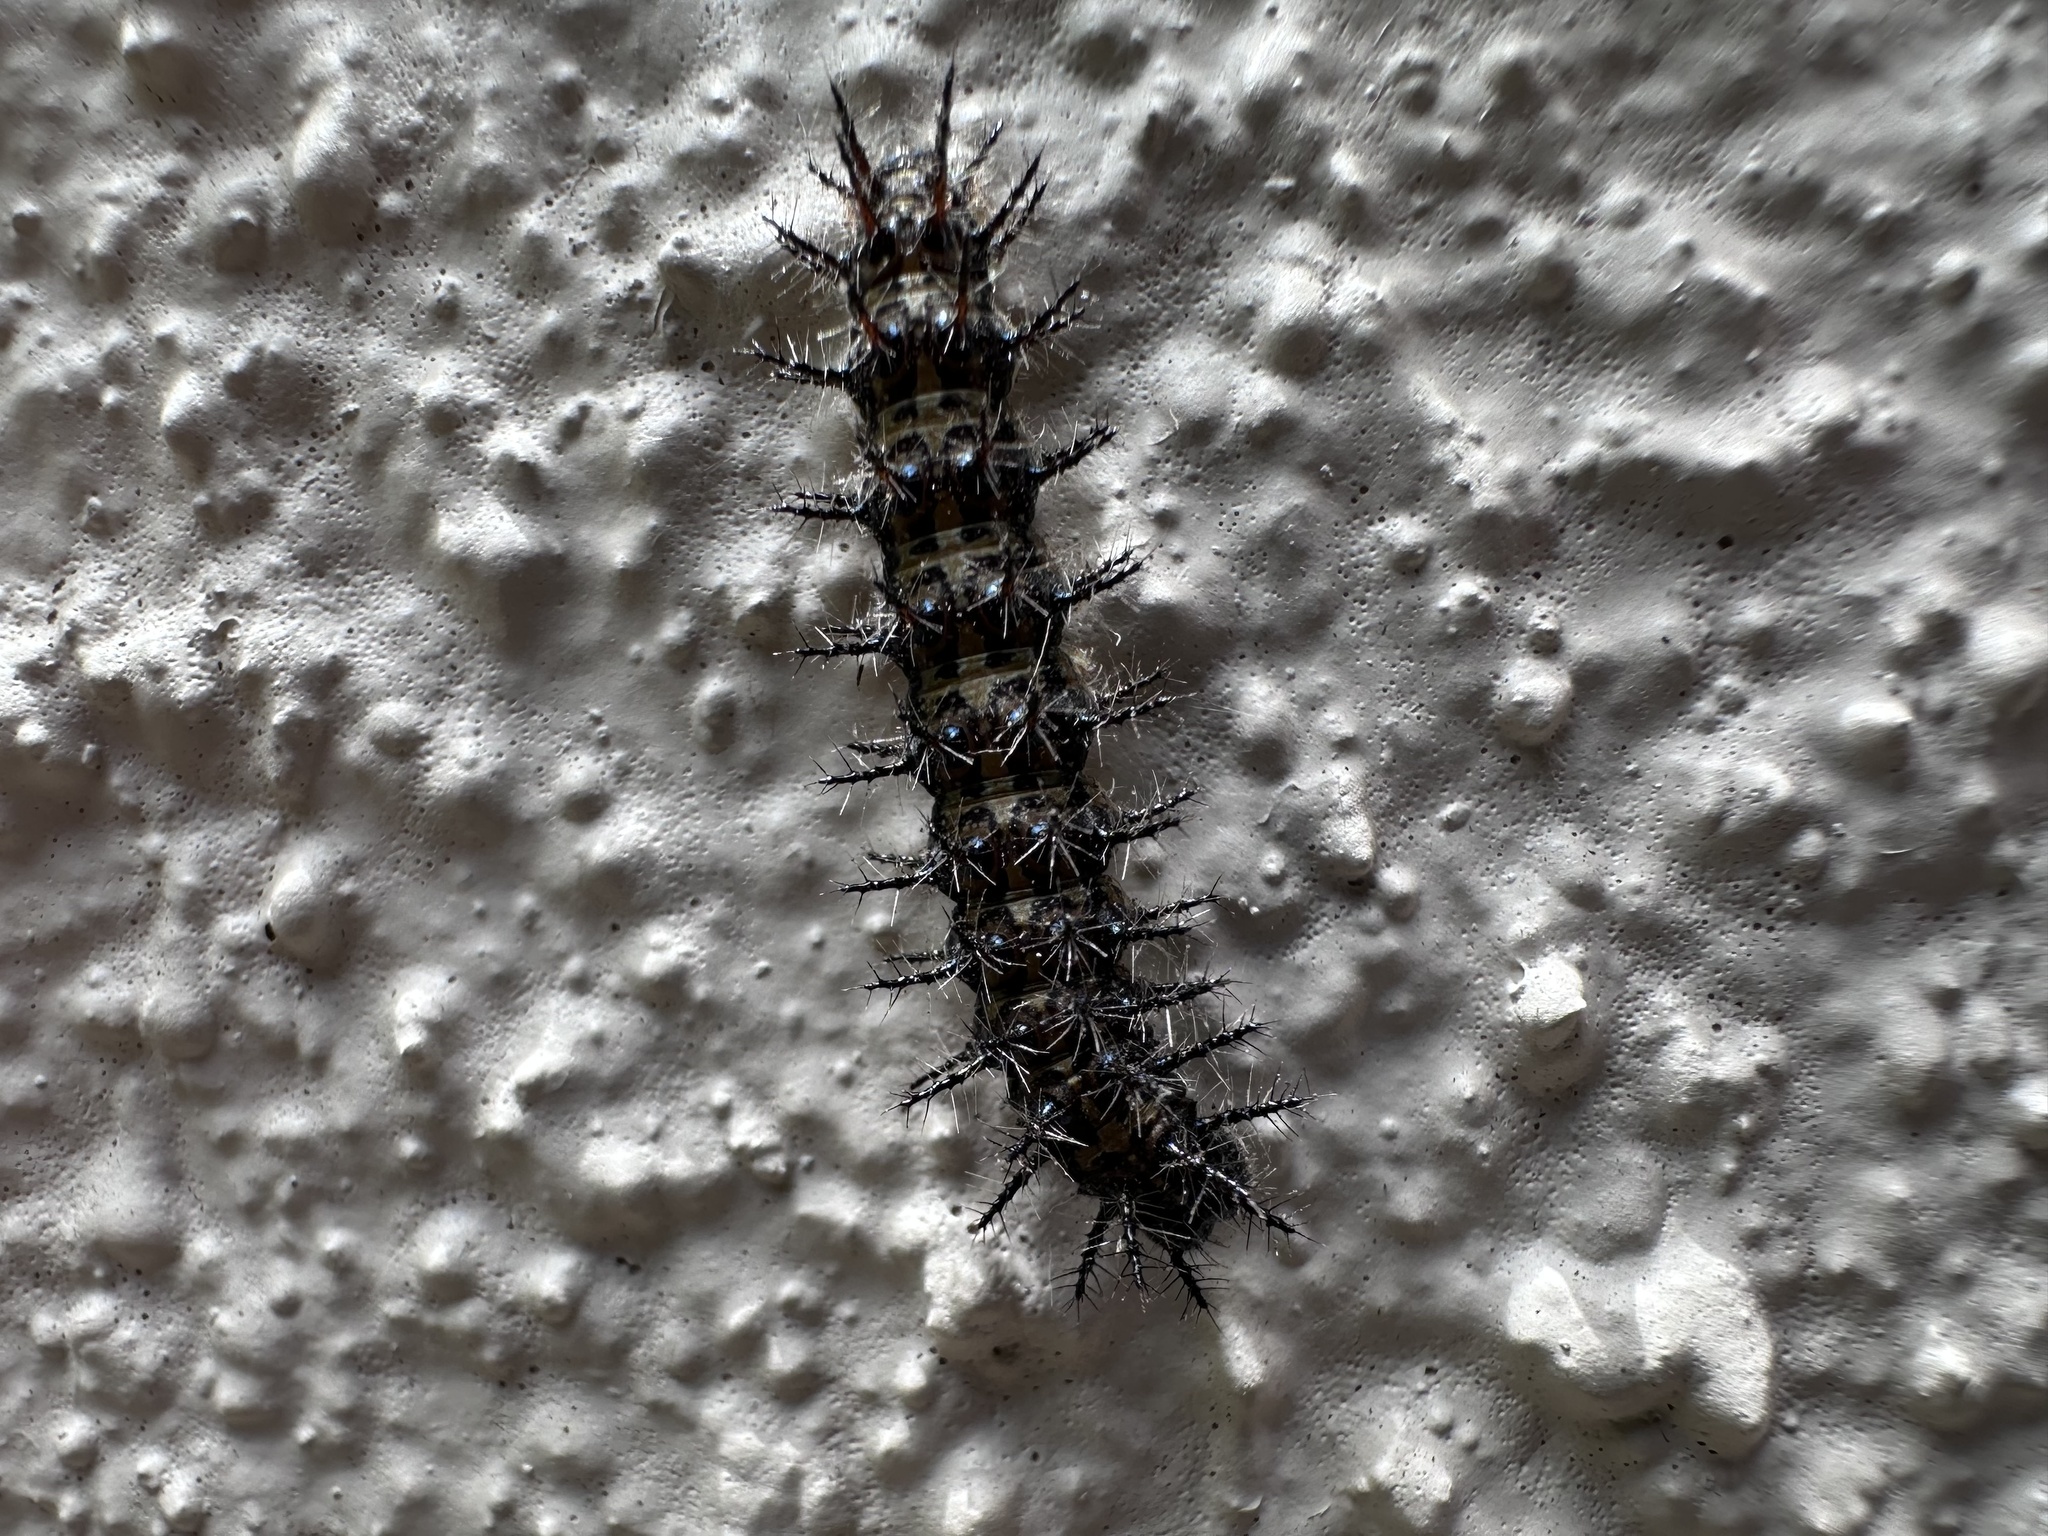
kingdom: Animalia
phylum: Arthropoda
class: Insecta
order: Lepidoptera
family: Nymphalidae
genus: Acraea
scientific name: Acraea horta
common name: Garden acraea
